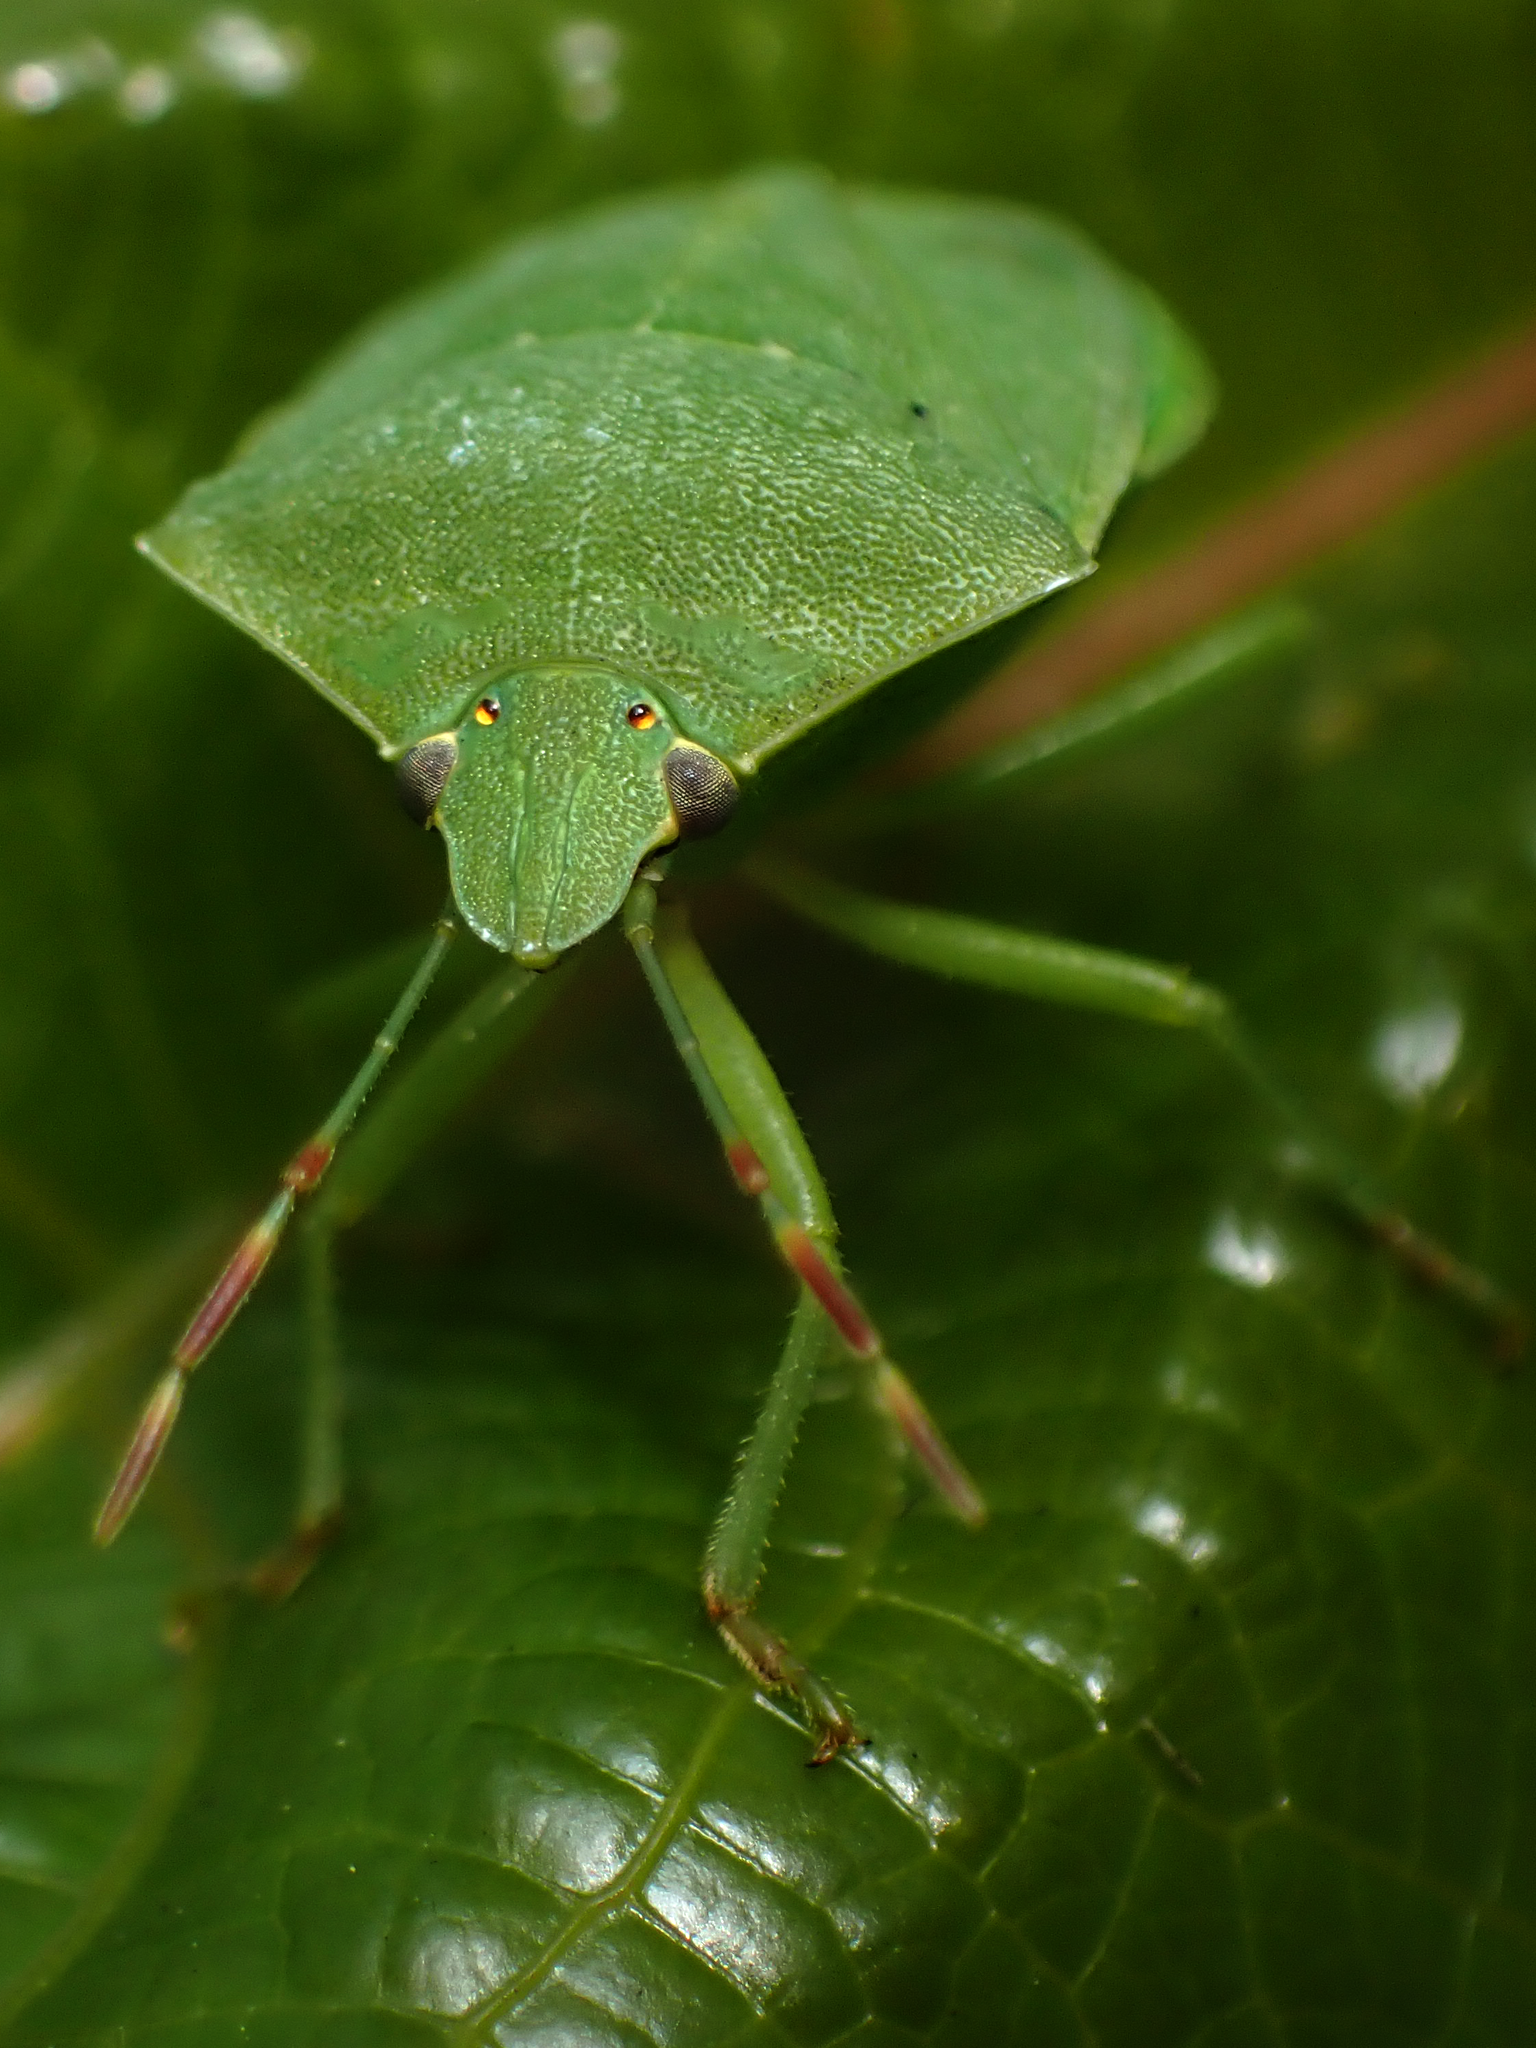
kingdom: Animalia
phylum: Arthropoda
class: Insecta
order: Hemiptera
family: Pentatomidae
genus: Nezara
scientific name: Nezara viridula
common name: Southern green stink bug
